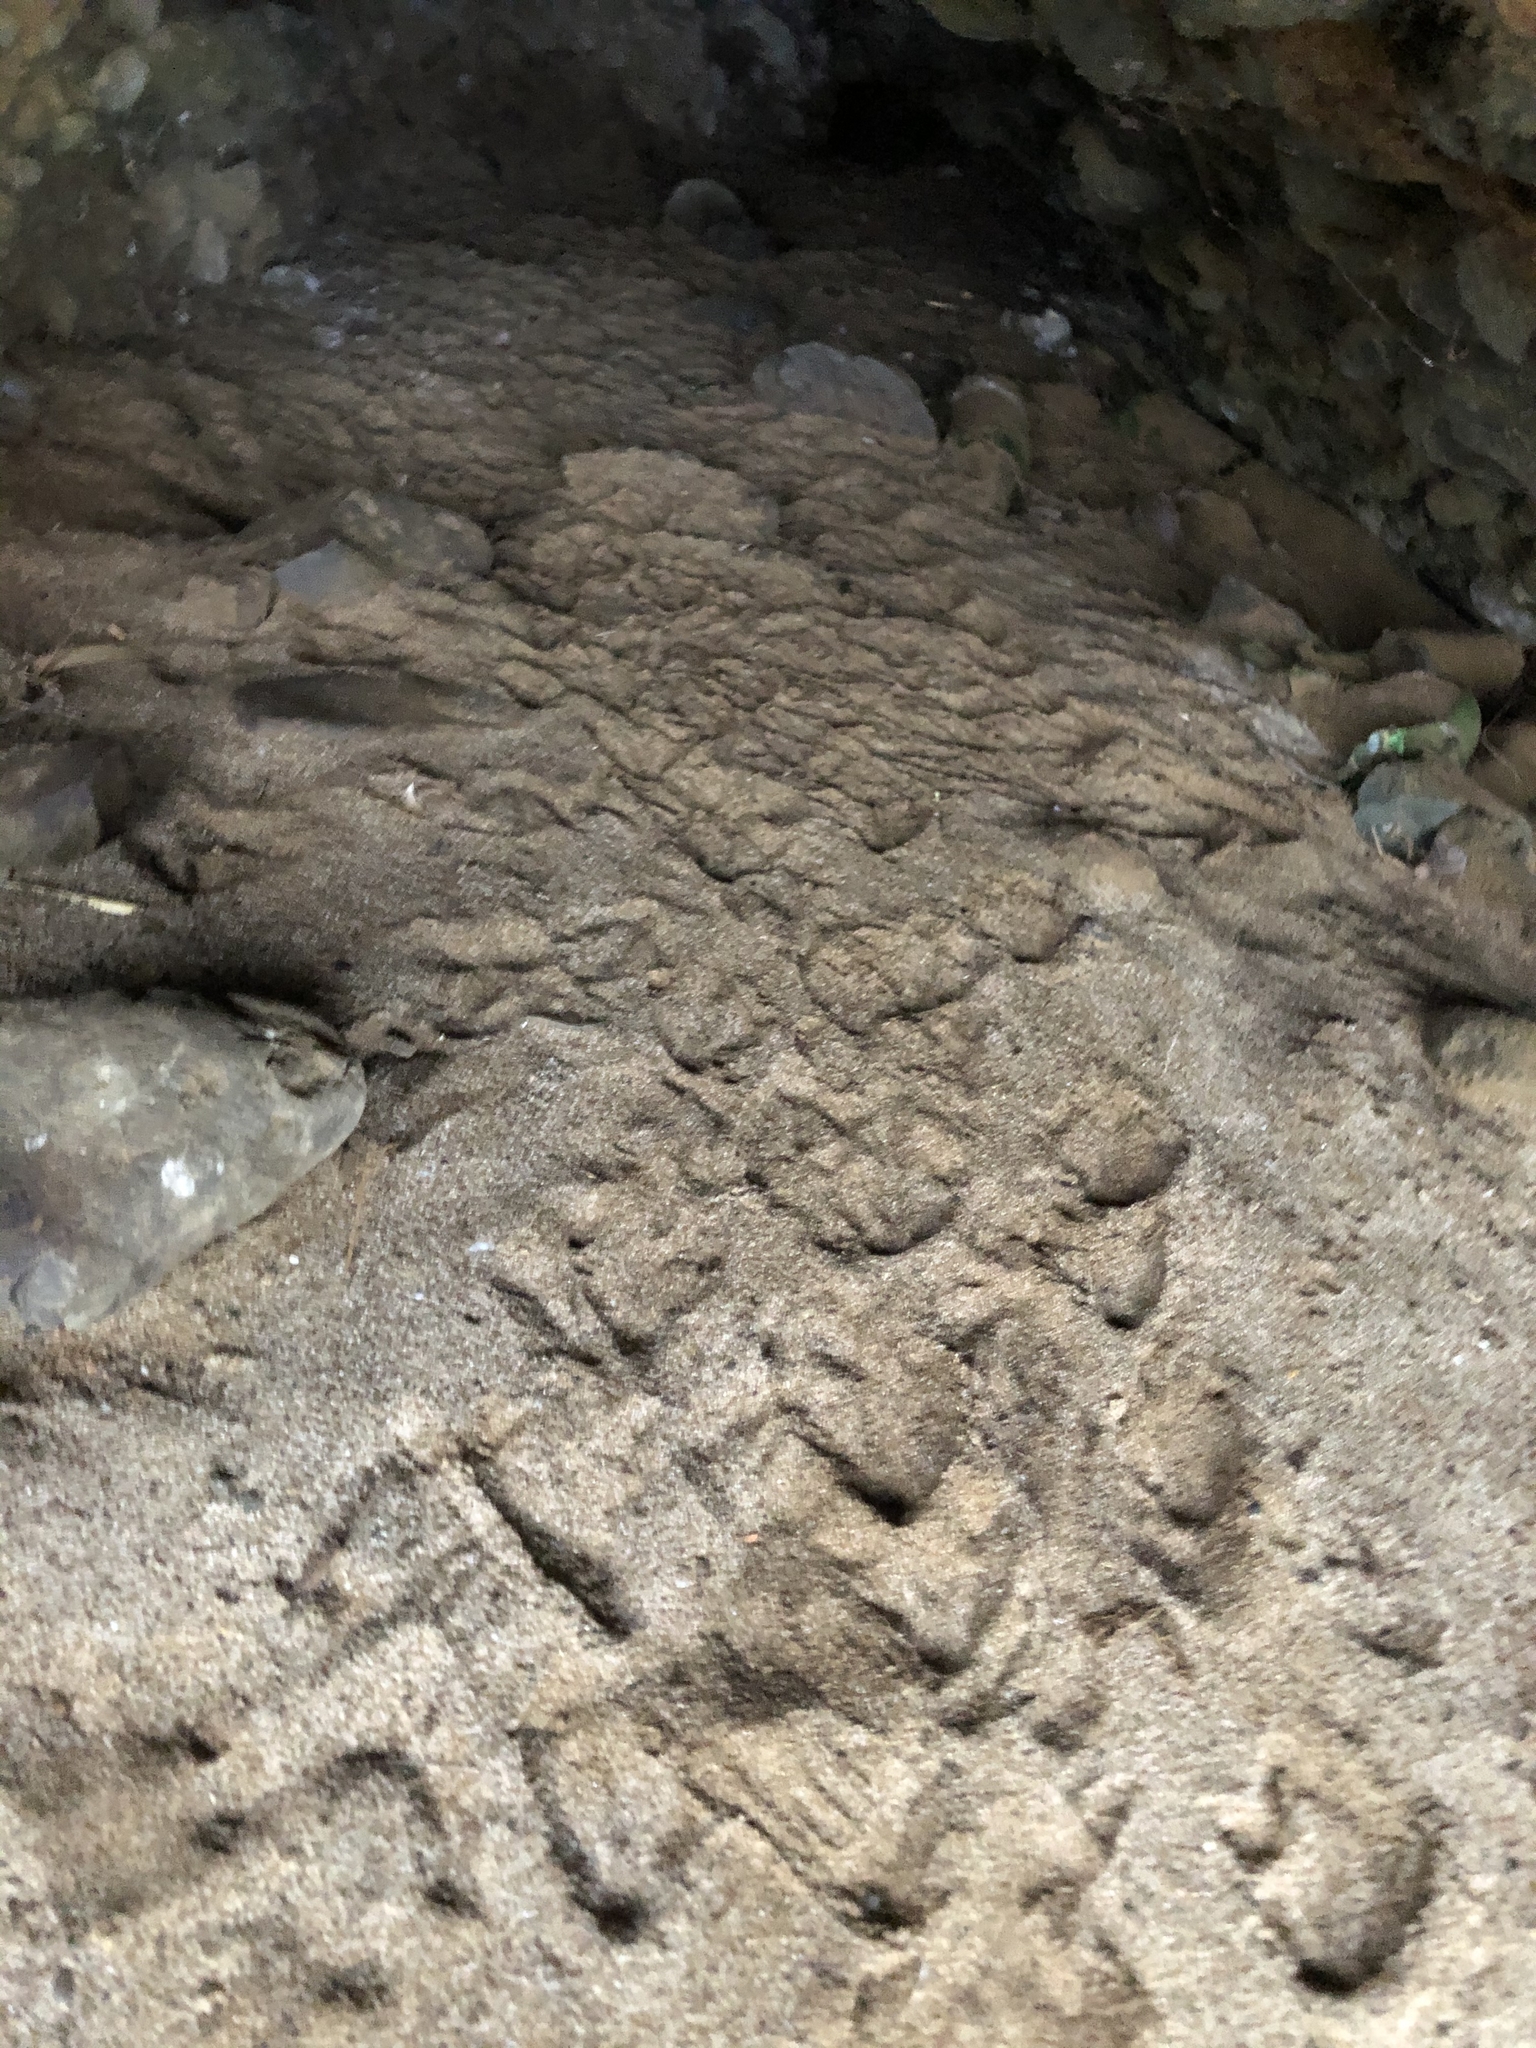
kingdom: Animalia
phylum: Chordata
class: Aves
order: Sphenisciformes
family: Spheniscidae
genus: Eudyptula
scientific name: Eudyptula minor
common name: Little penguin
